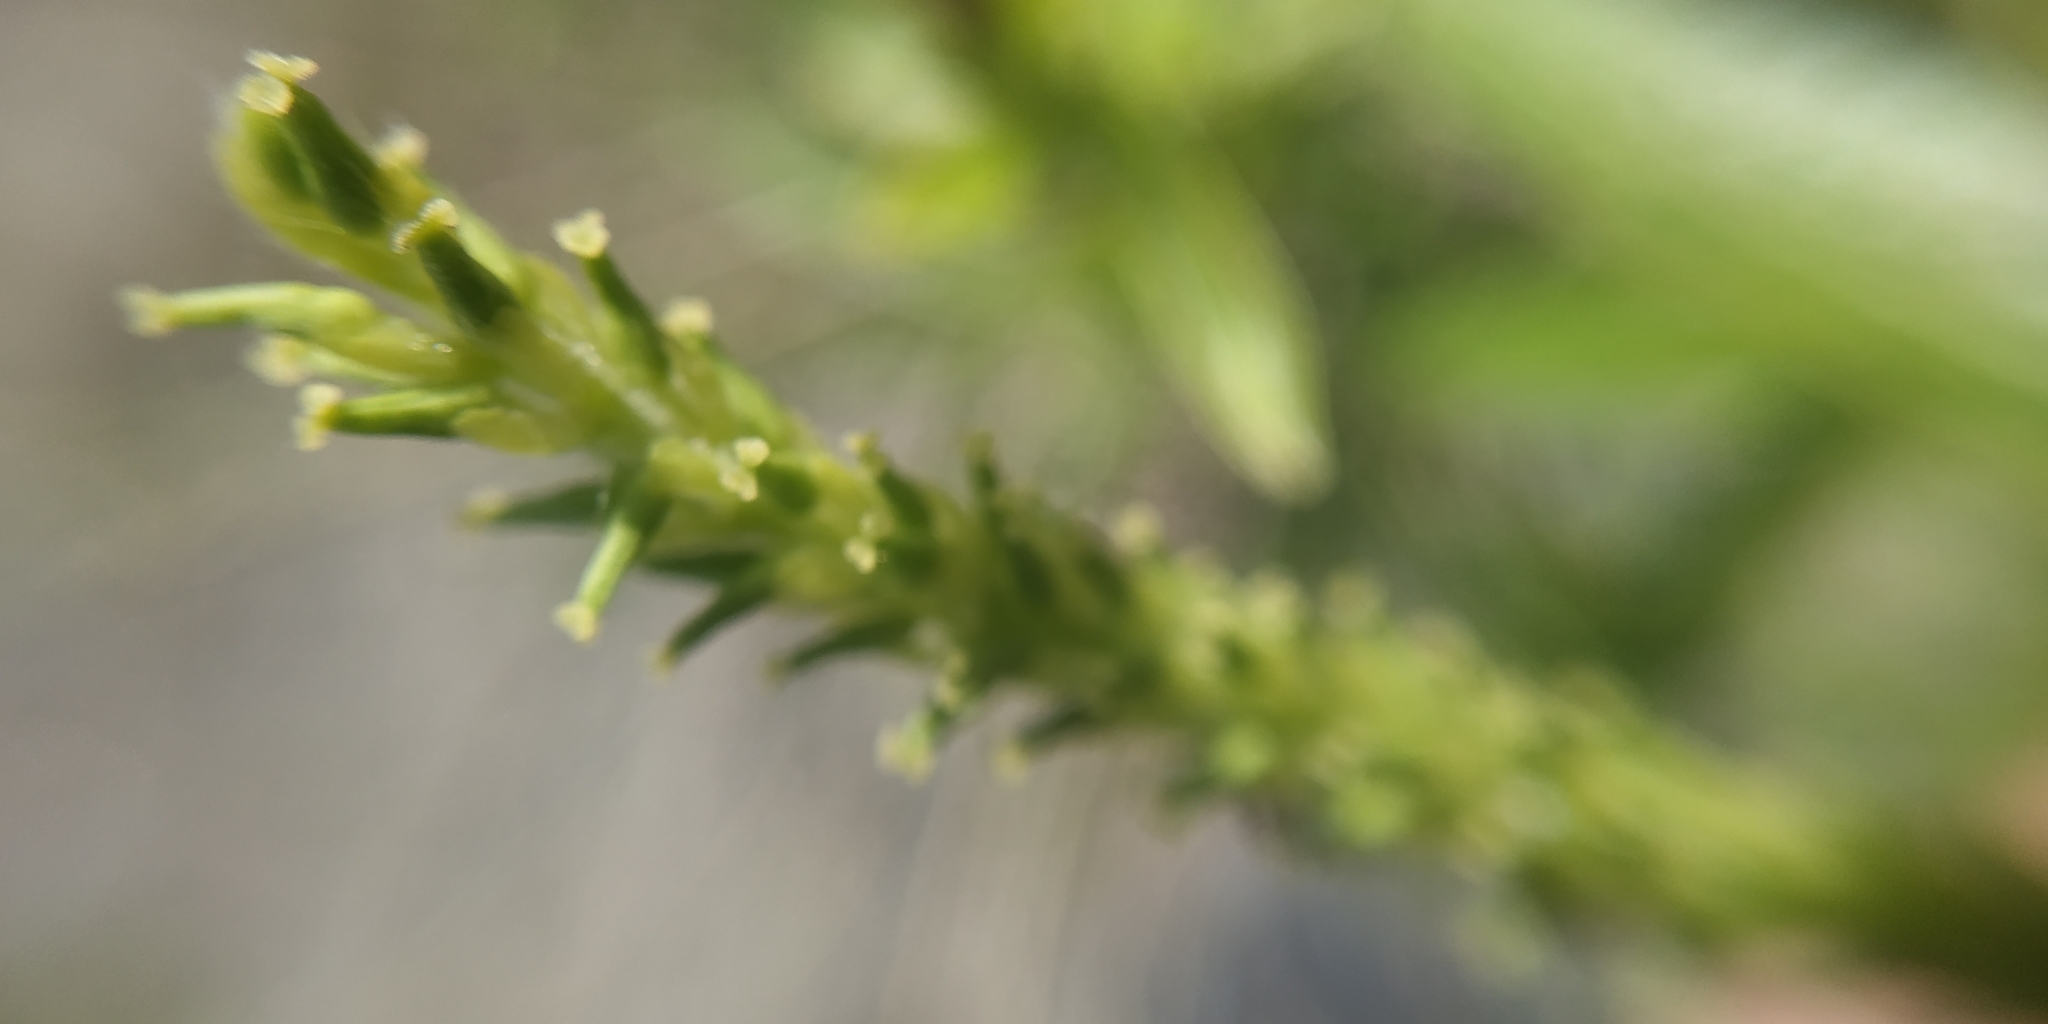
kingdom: Plantae
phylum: Tracheophyta
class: Magnoliopsida
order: Malpighiales
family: Salicaceae
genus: Salix
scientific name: Salix triandra
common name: Almond willow
